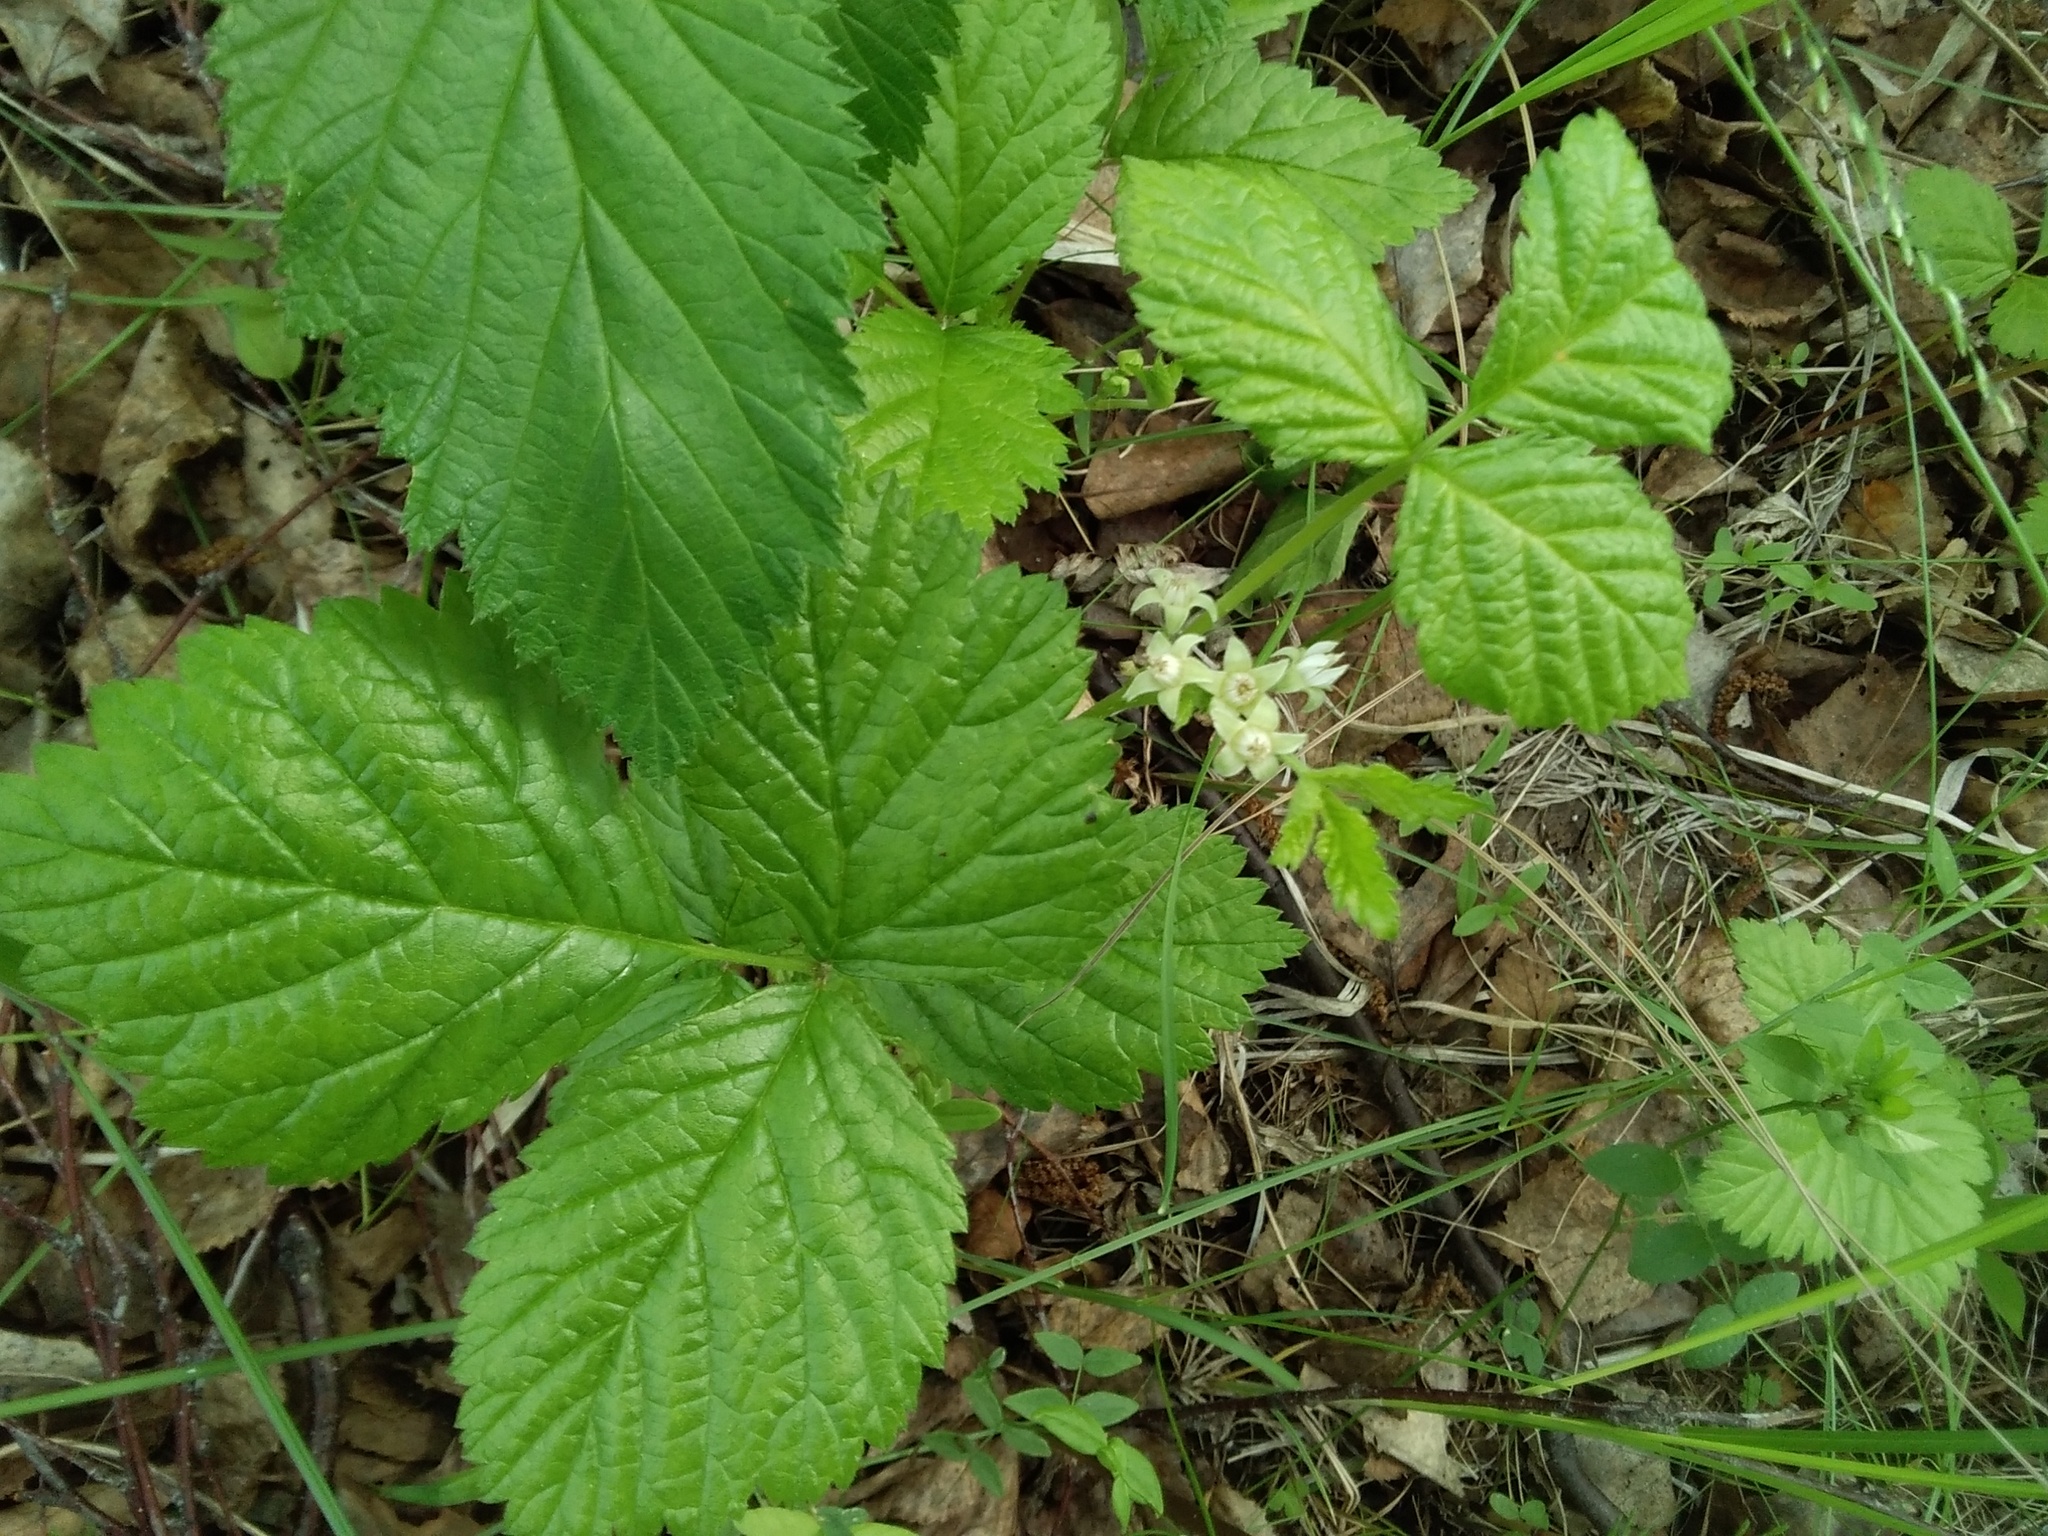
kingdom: Plantae
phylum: Tracheophyta
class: Magnoliopsida
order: Rosales
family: Rosaceae
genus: Rubus
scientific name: Rubus saxatilis
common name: Stone bramble
